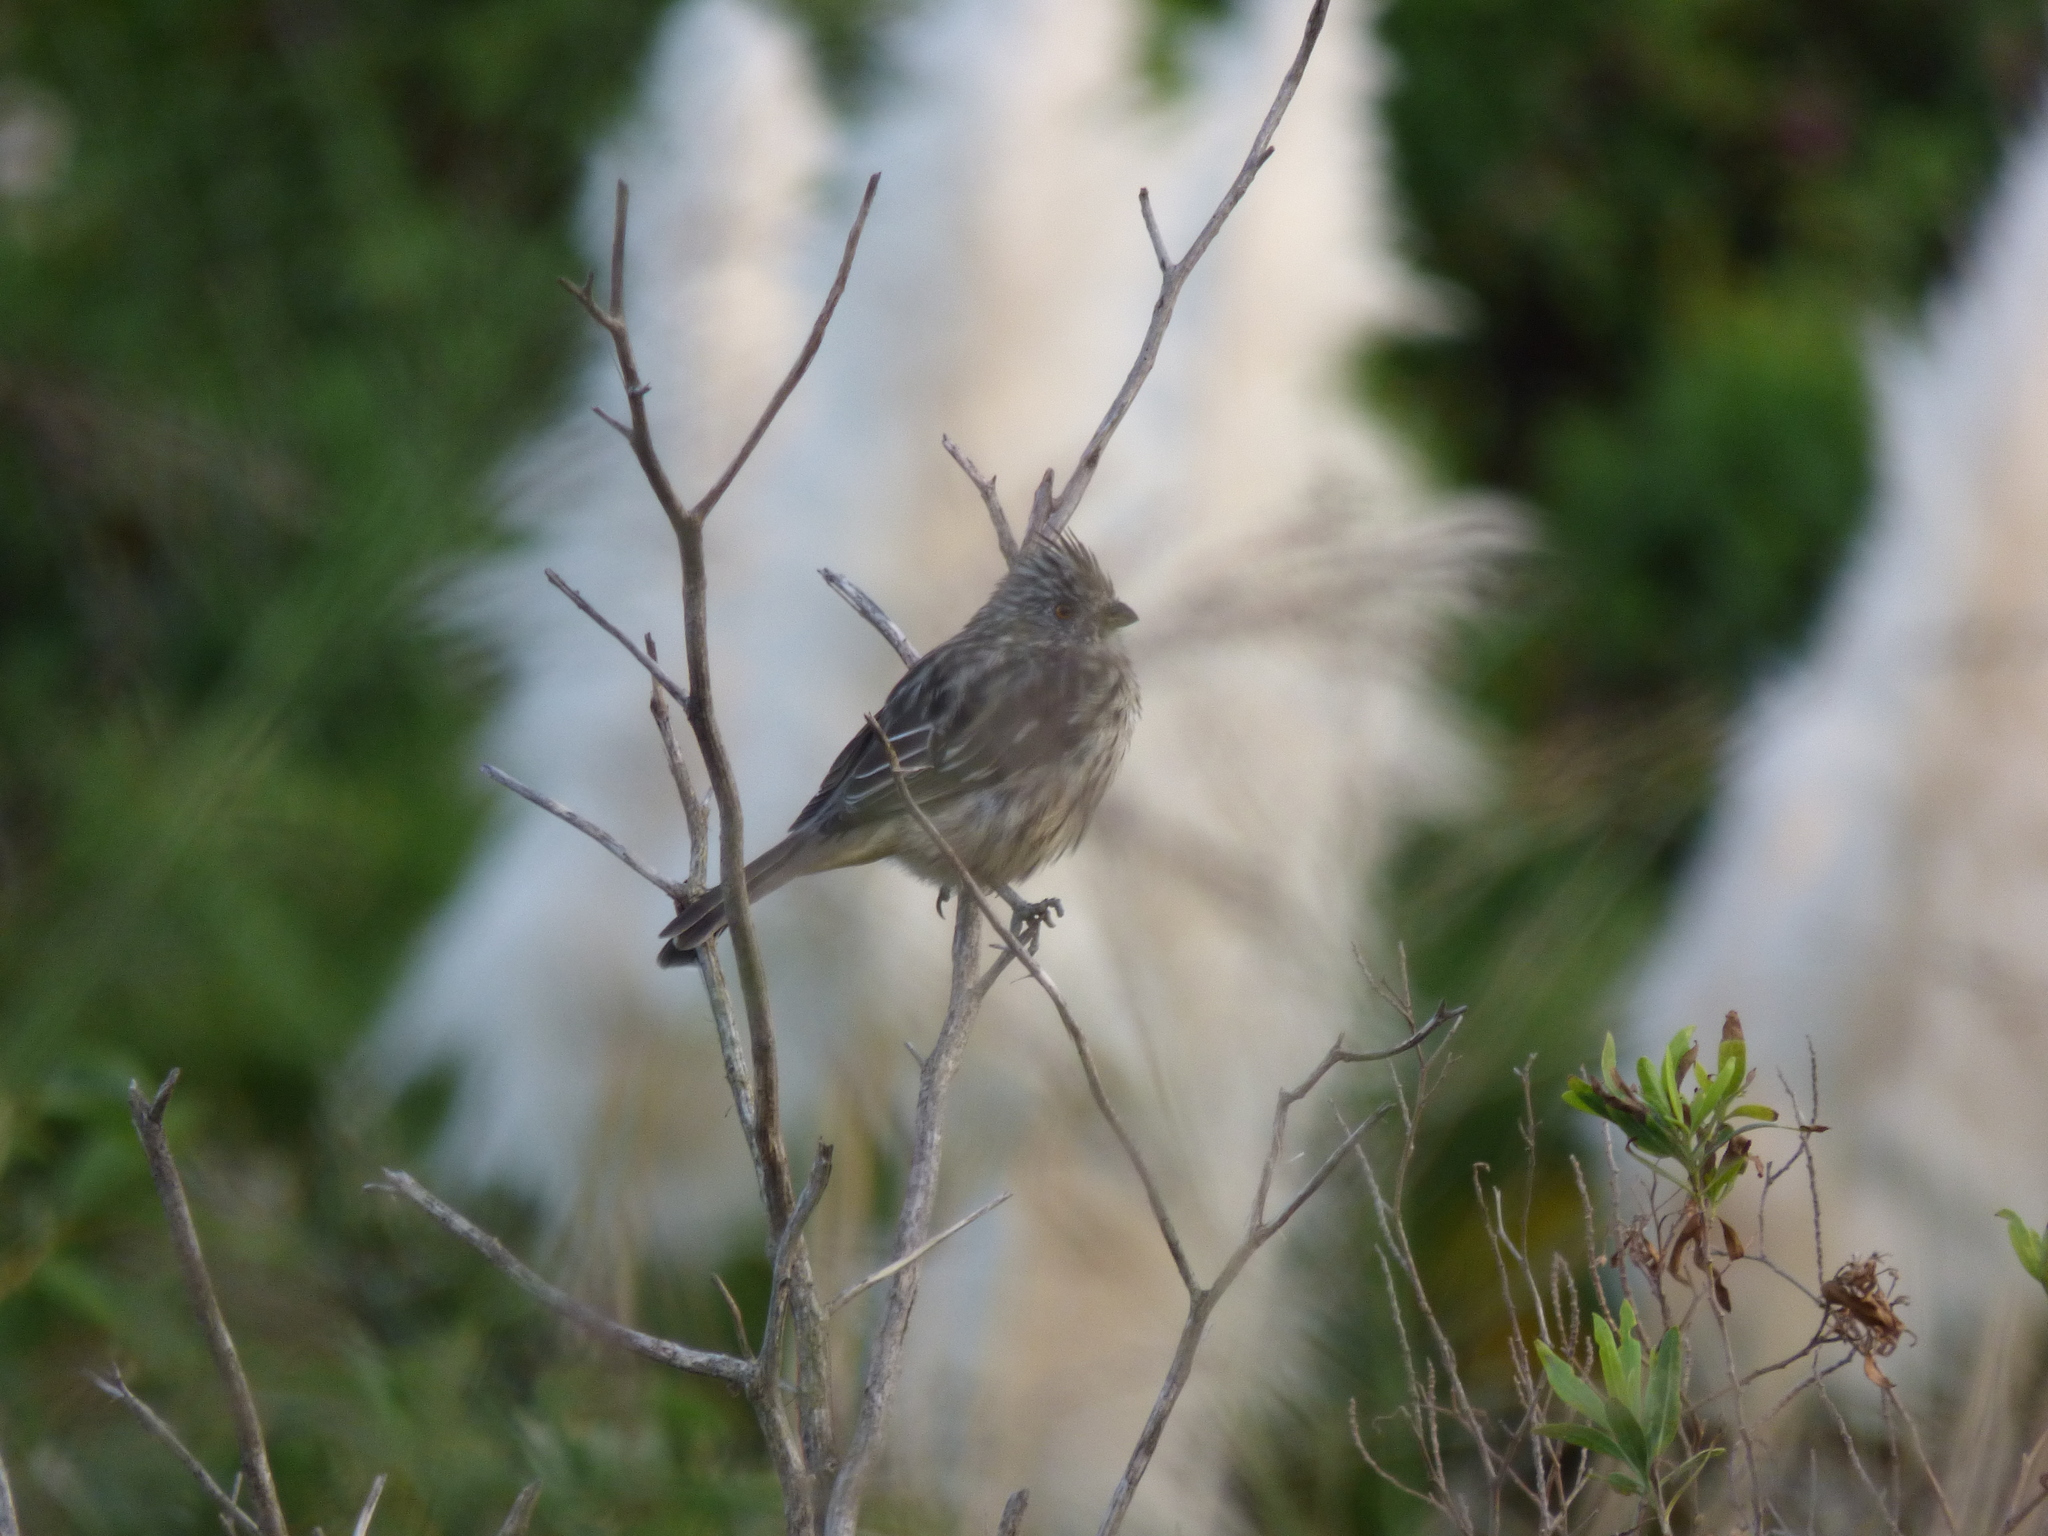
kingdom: Animalia
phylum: Chordata
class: Aves
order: Passeriformes
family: Cotingidae
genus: Phytotoma
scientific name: Phytotoma rutila
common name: White-tipped plantcutter
